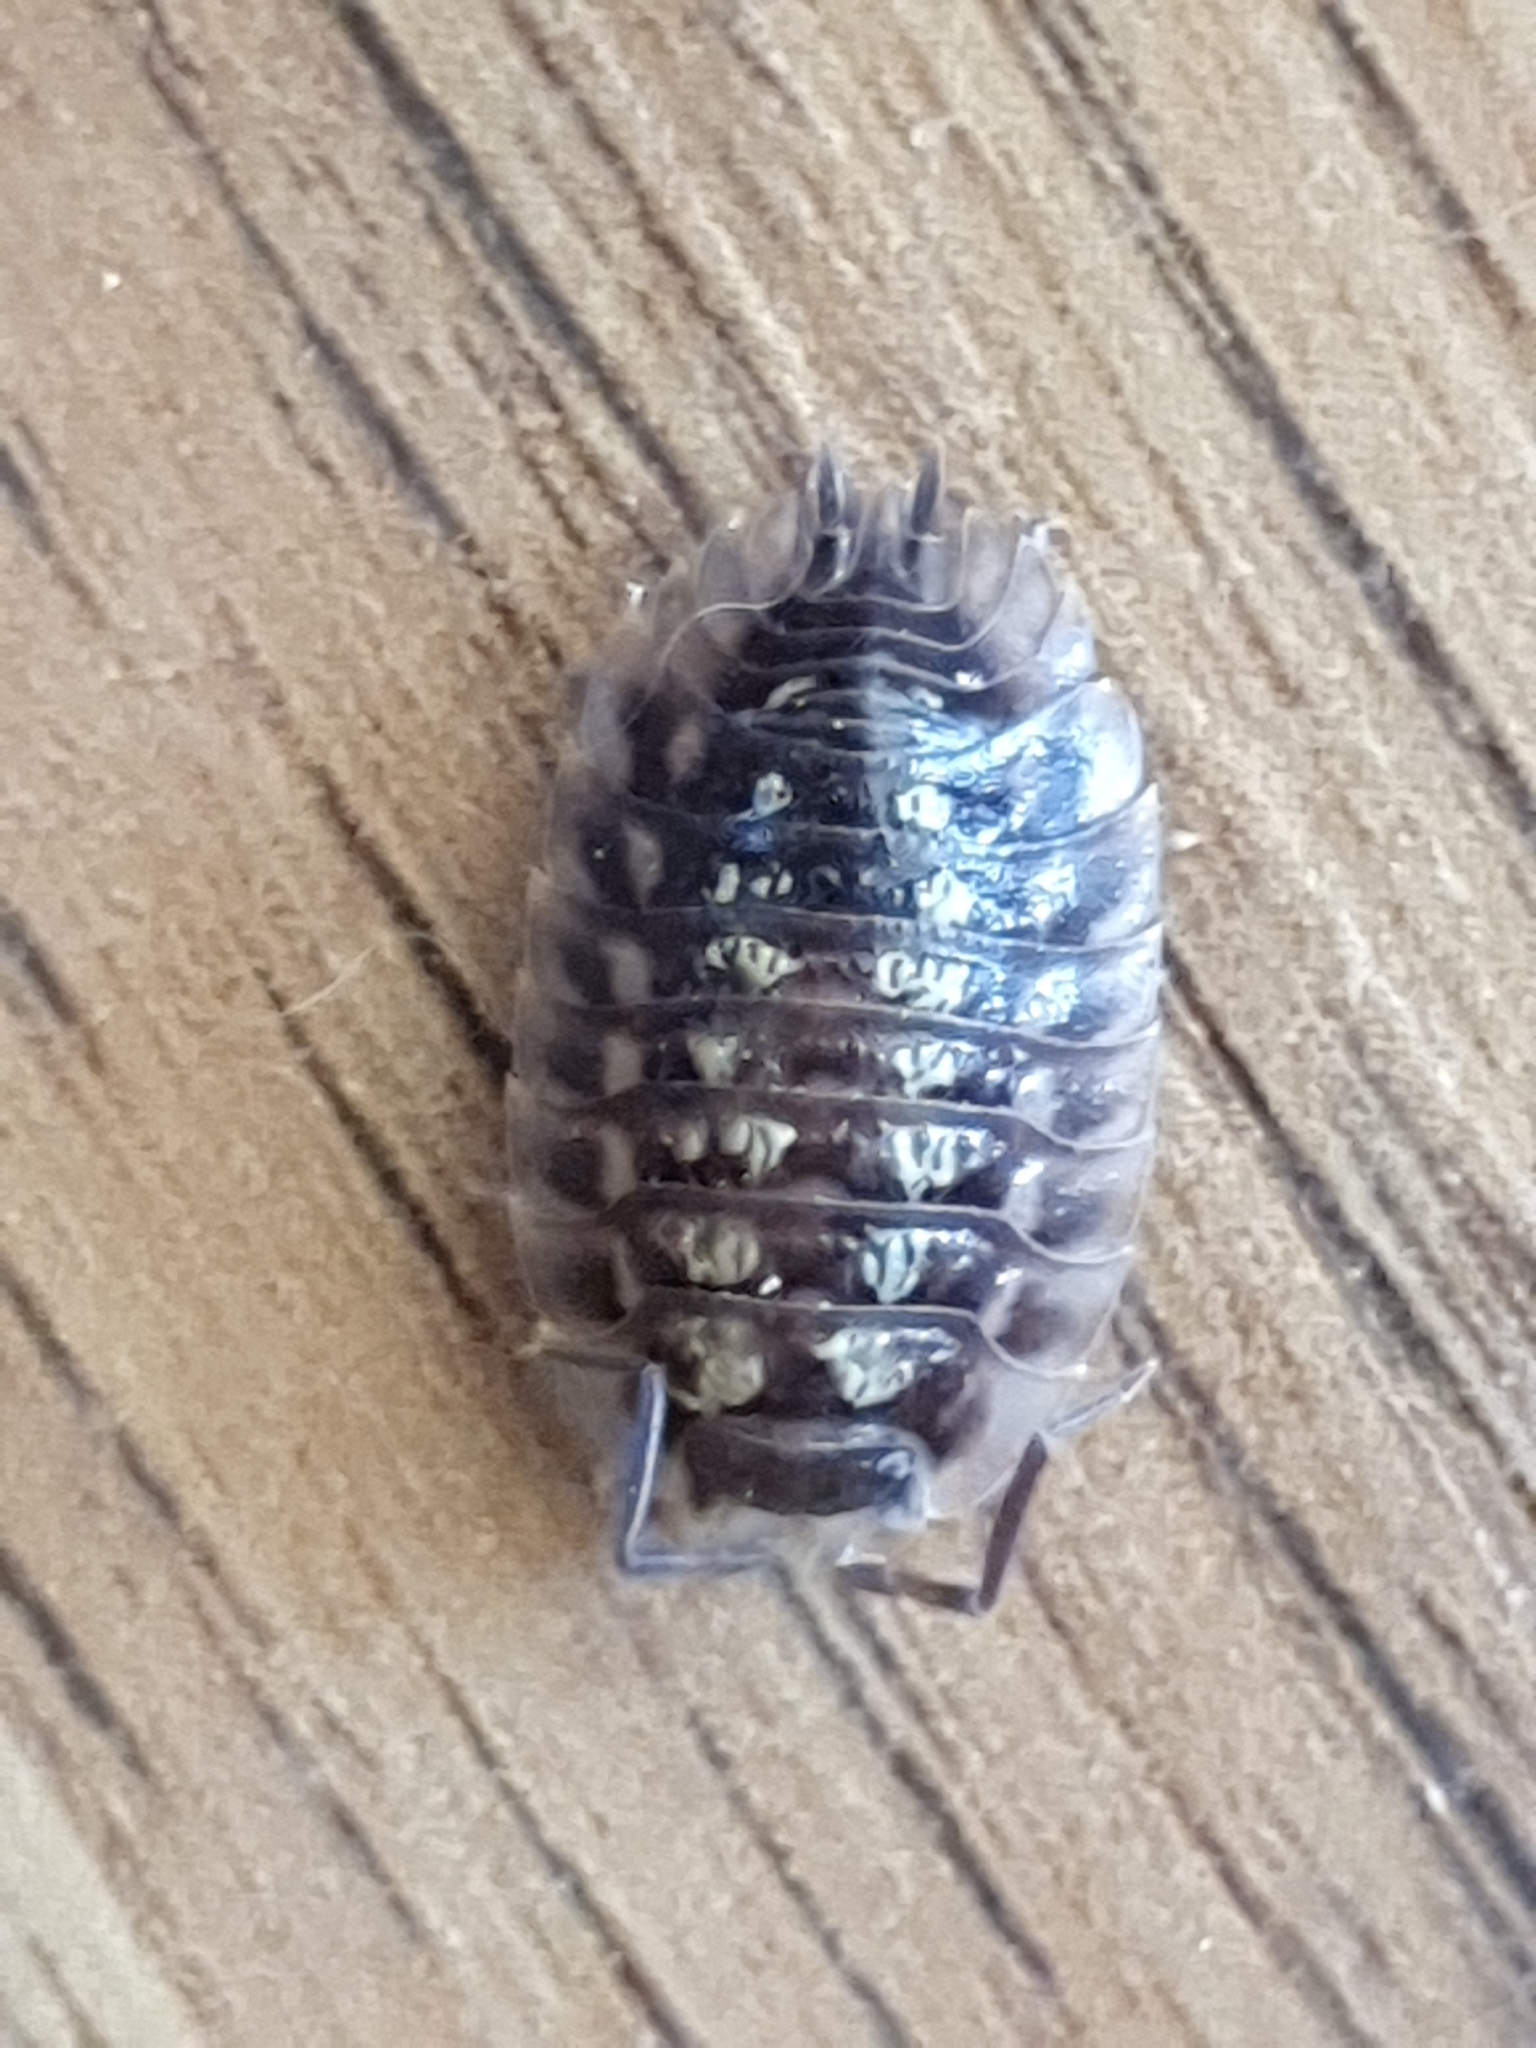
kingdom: Animalia
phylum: Arthropoda
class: Malacostraca
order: Isopoda
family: Oniscidae
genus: Oniscus
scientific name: Oniscus asellus
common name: Common shiny woodlouse
